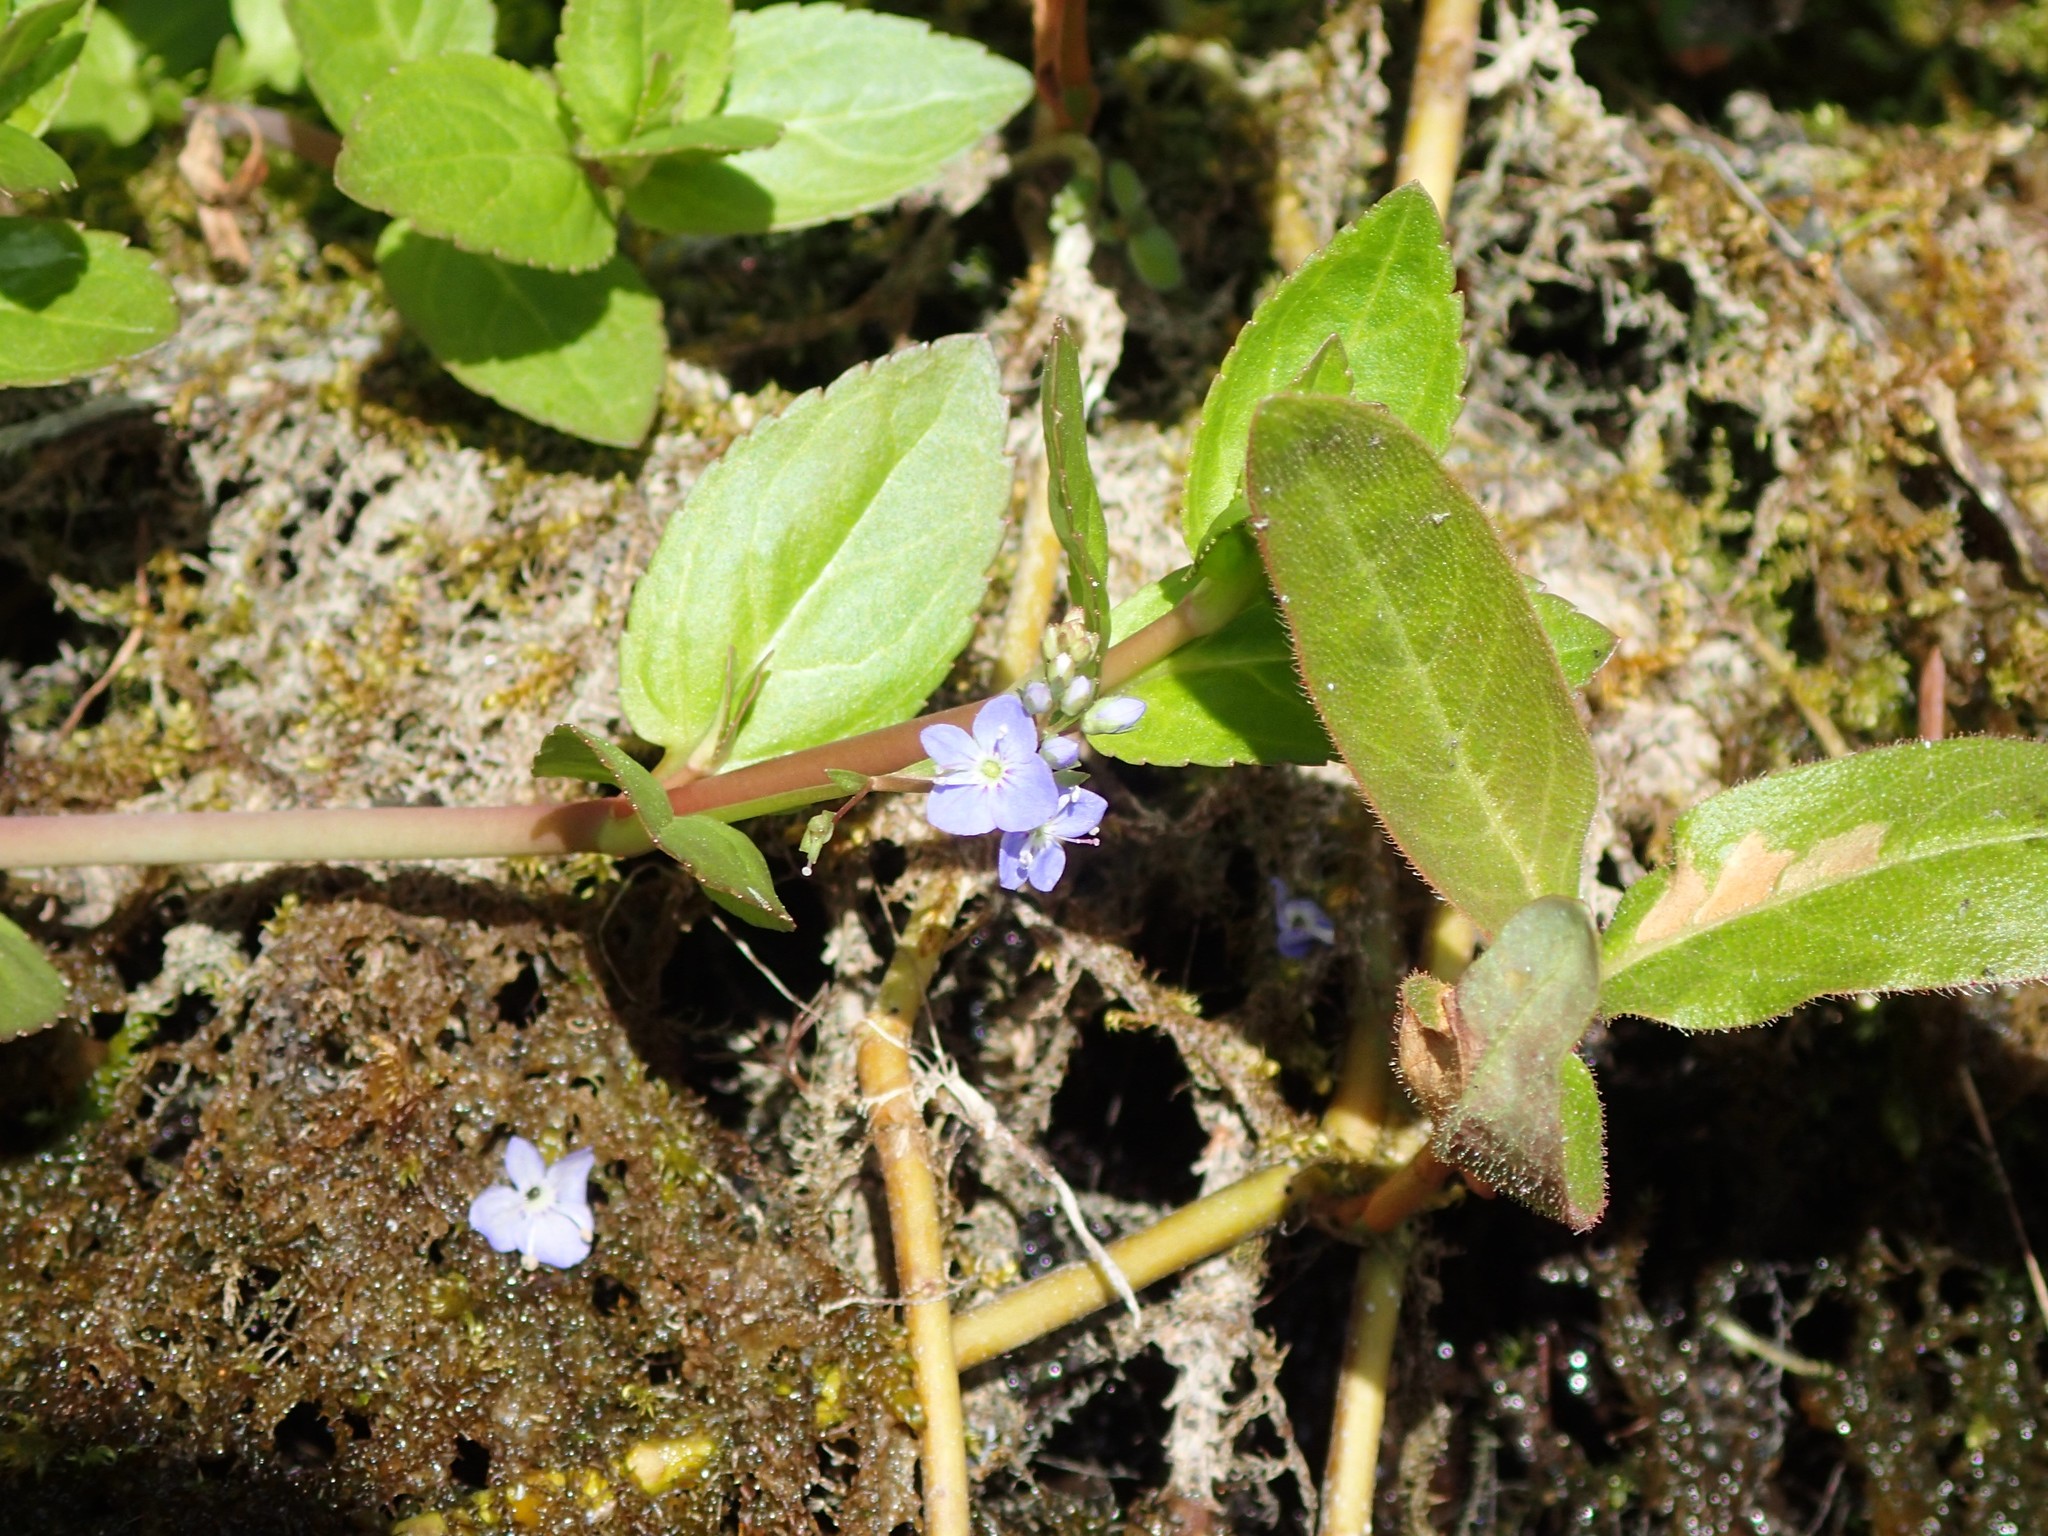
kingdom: Plantae
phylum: Tracheophyta
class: Magnoliopsida
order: Lamiales
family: Plantaginaceae
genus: Veronica
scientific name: Veronica americana
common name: American brooklime
